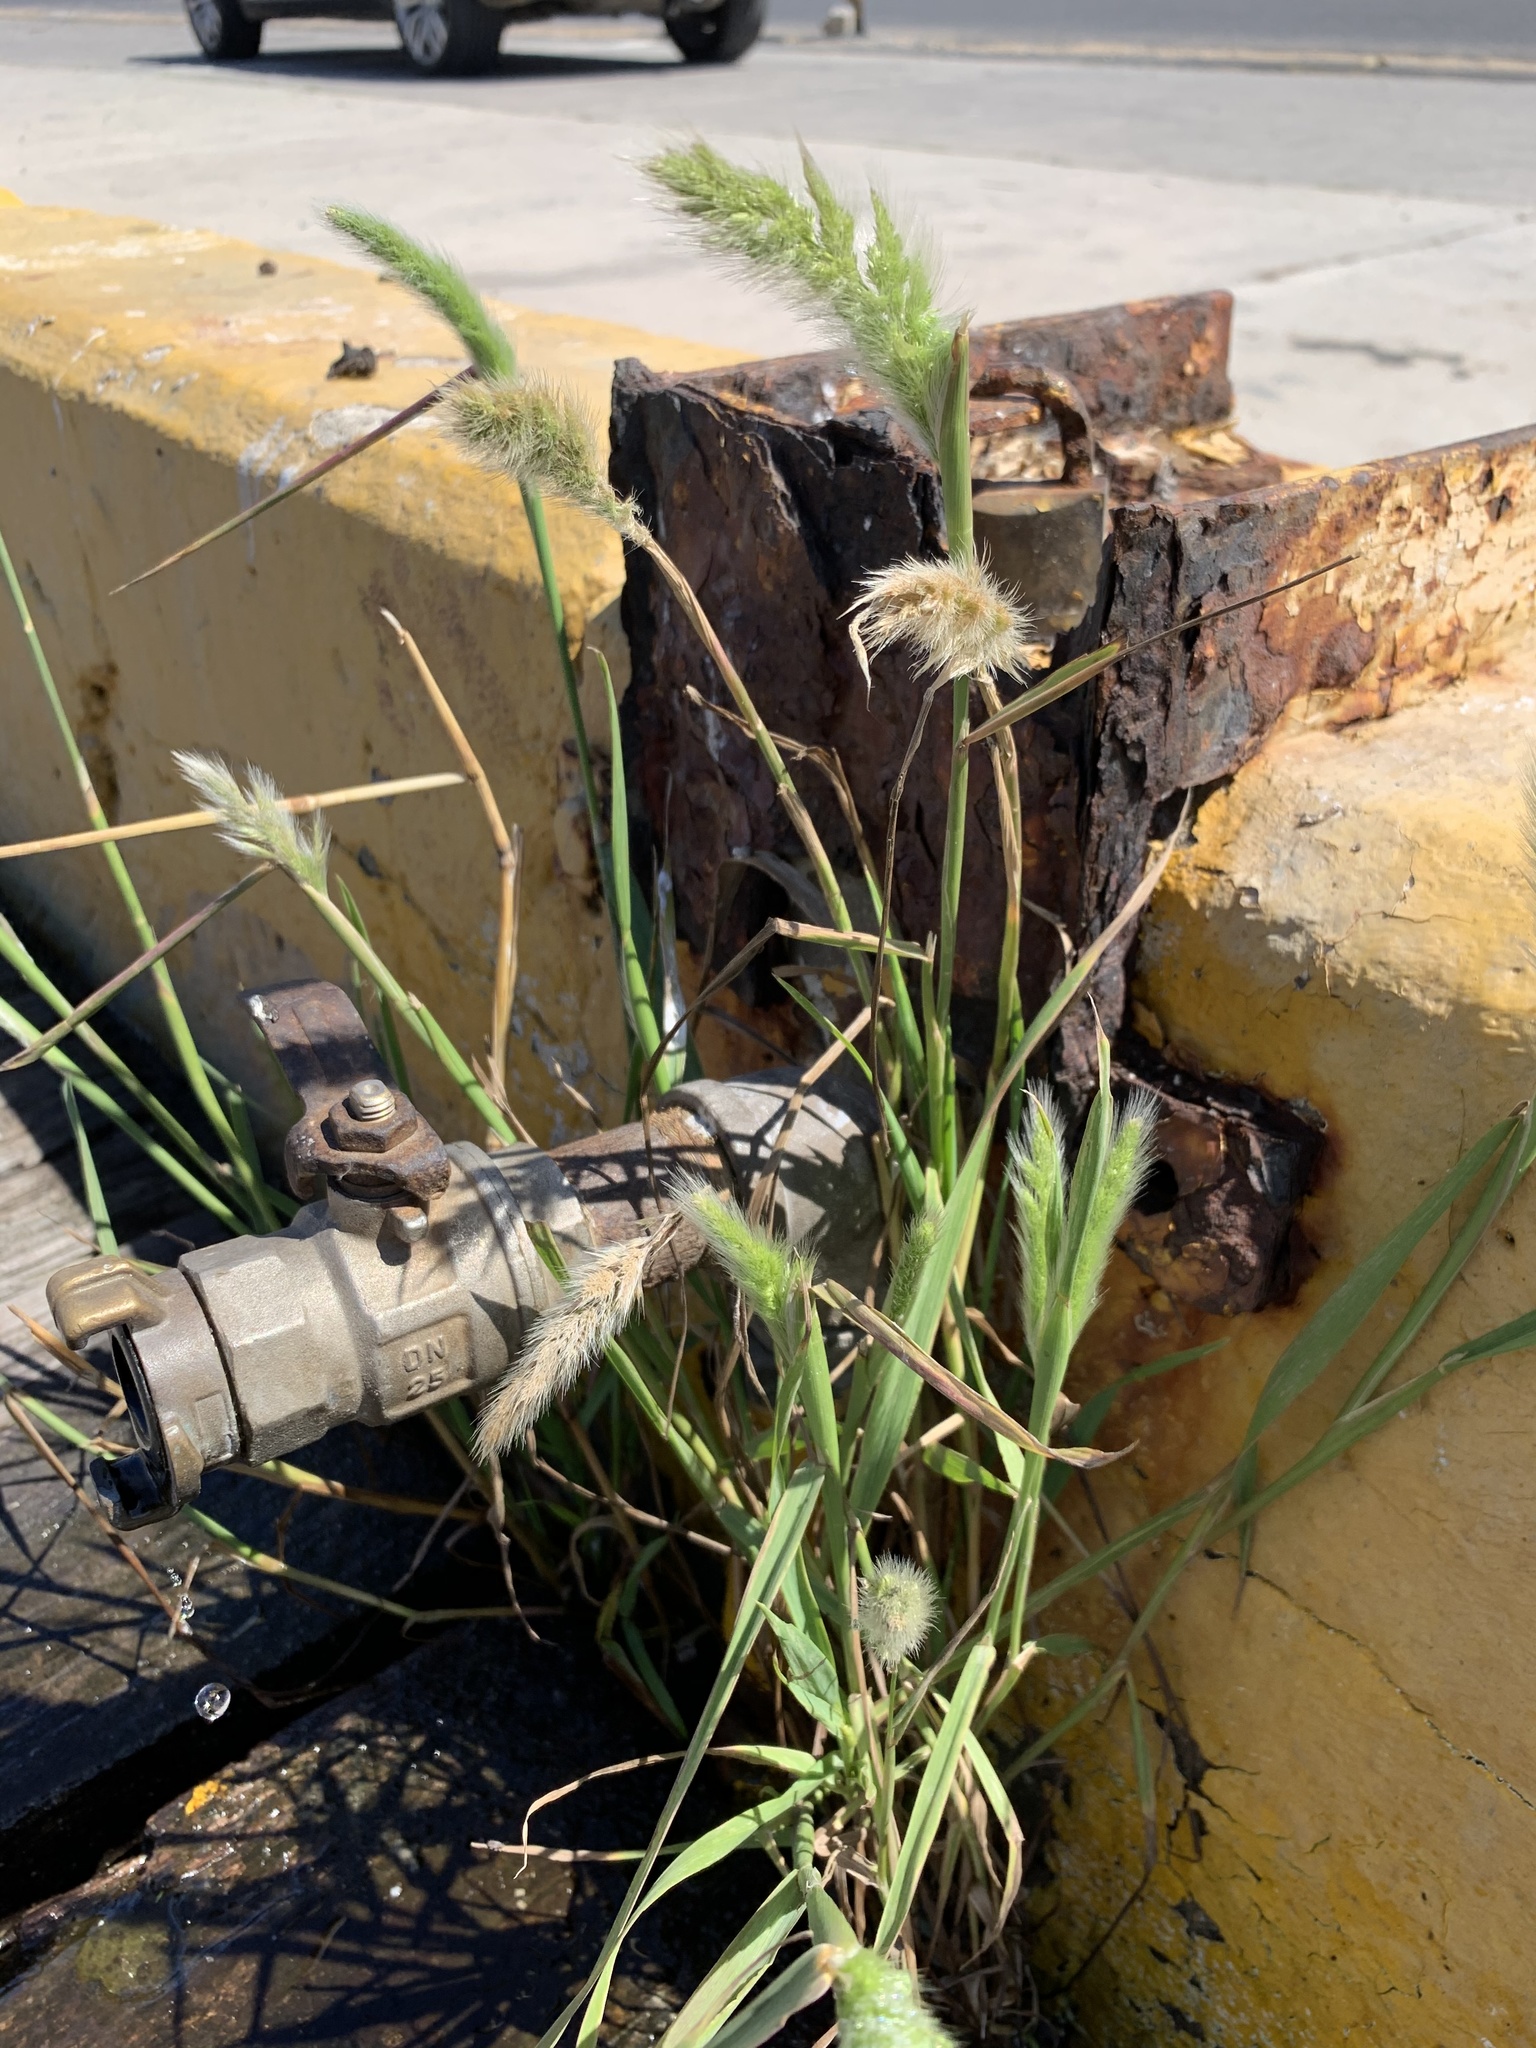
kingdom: Plantae
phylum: Tracheophyta
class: Liliopsida
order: Poales
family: Poaceae
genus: Polypogon
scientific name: Polypogon monspeliensis
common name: Annual rabbitsfoot grass
